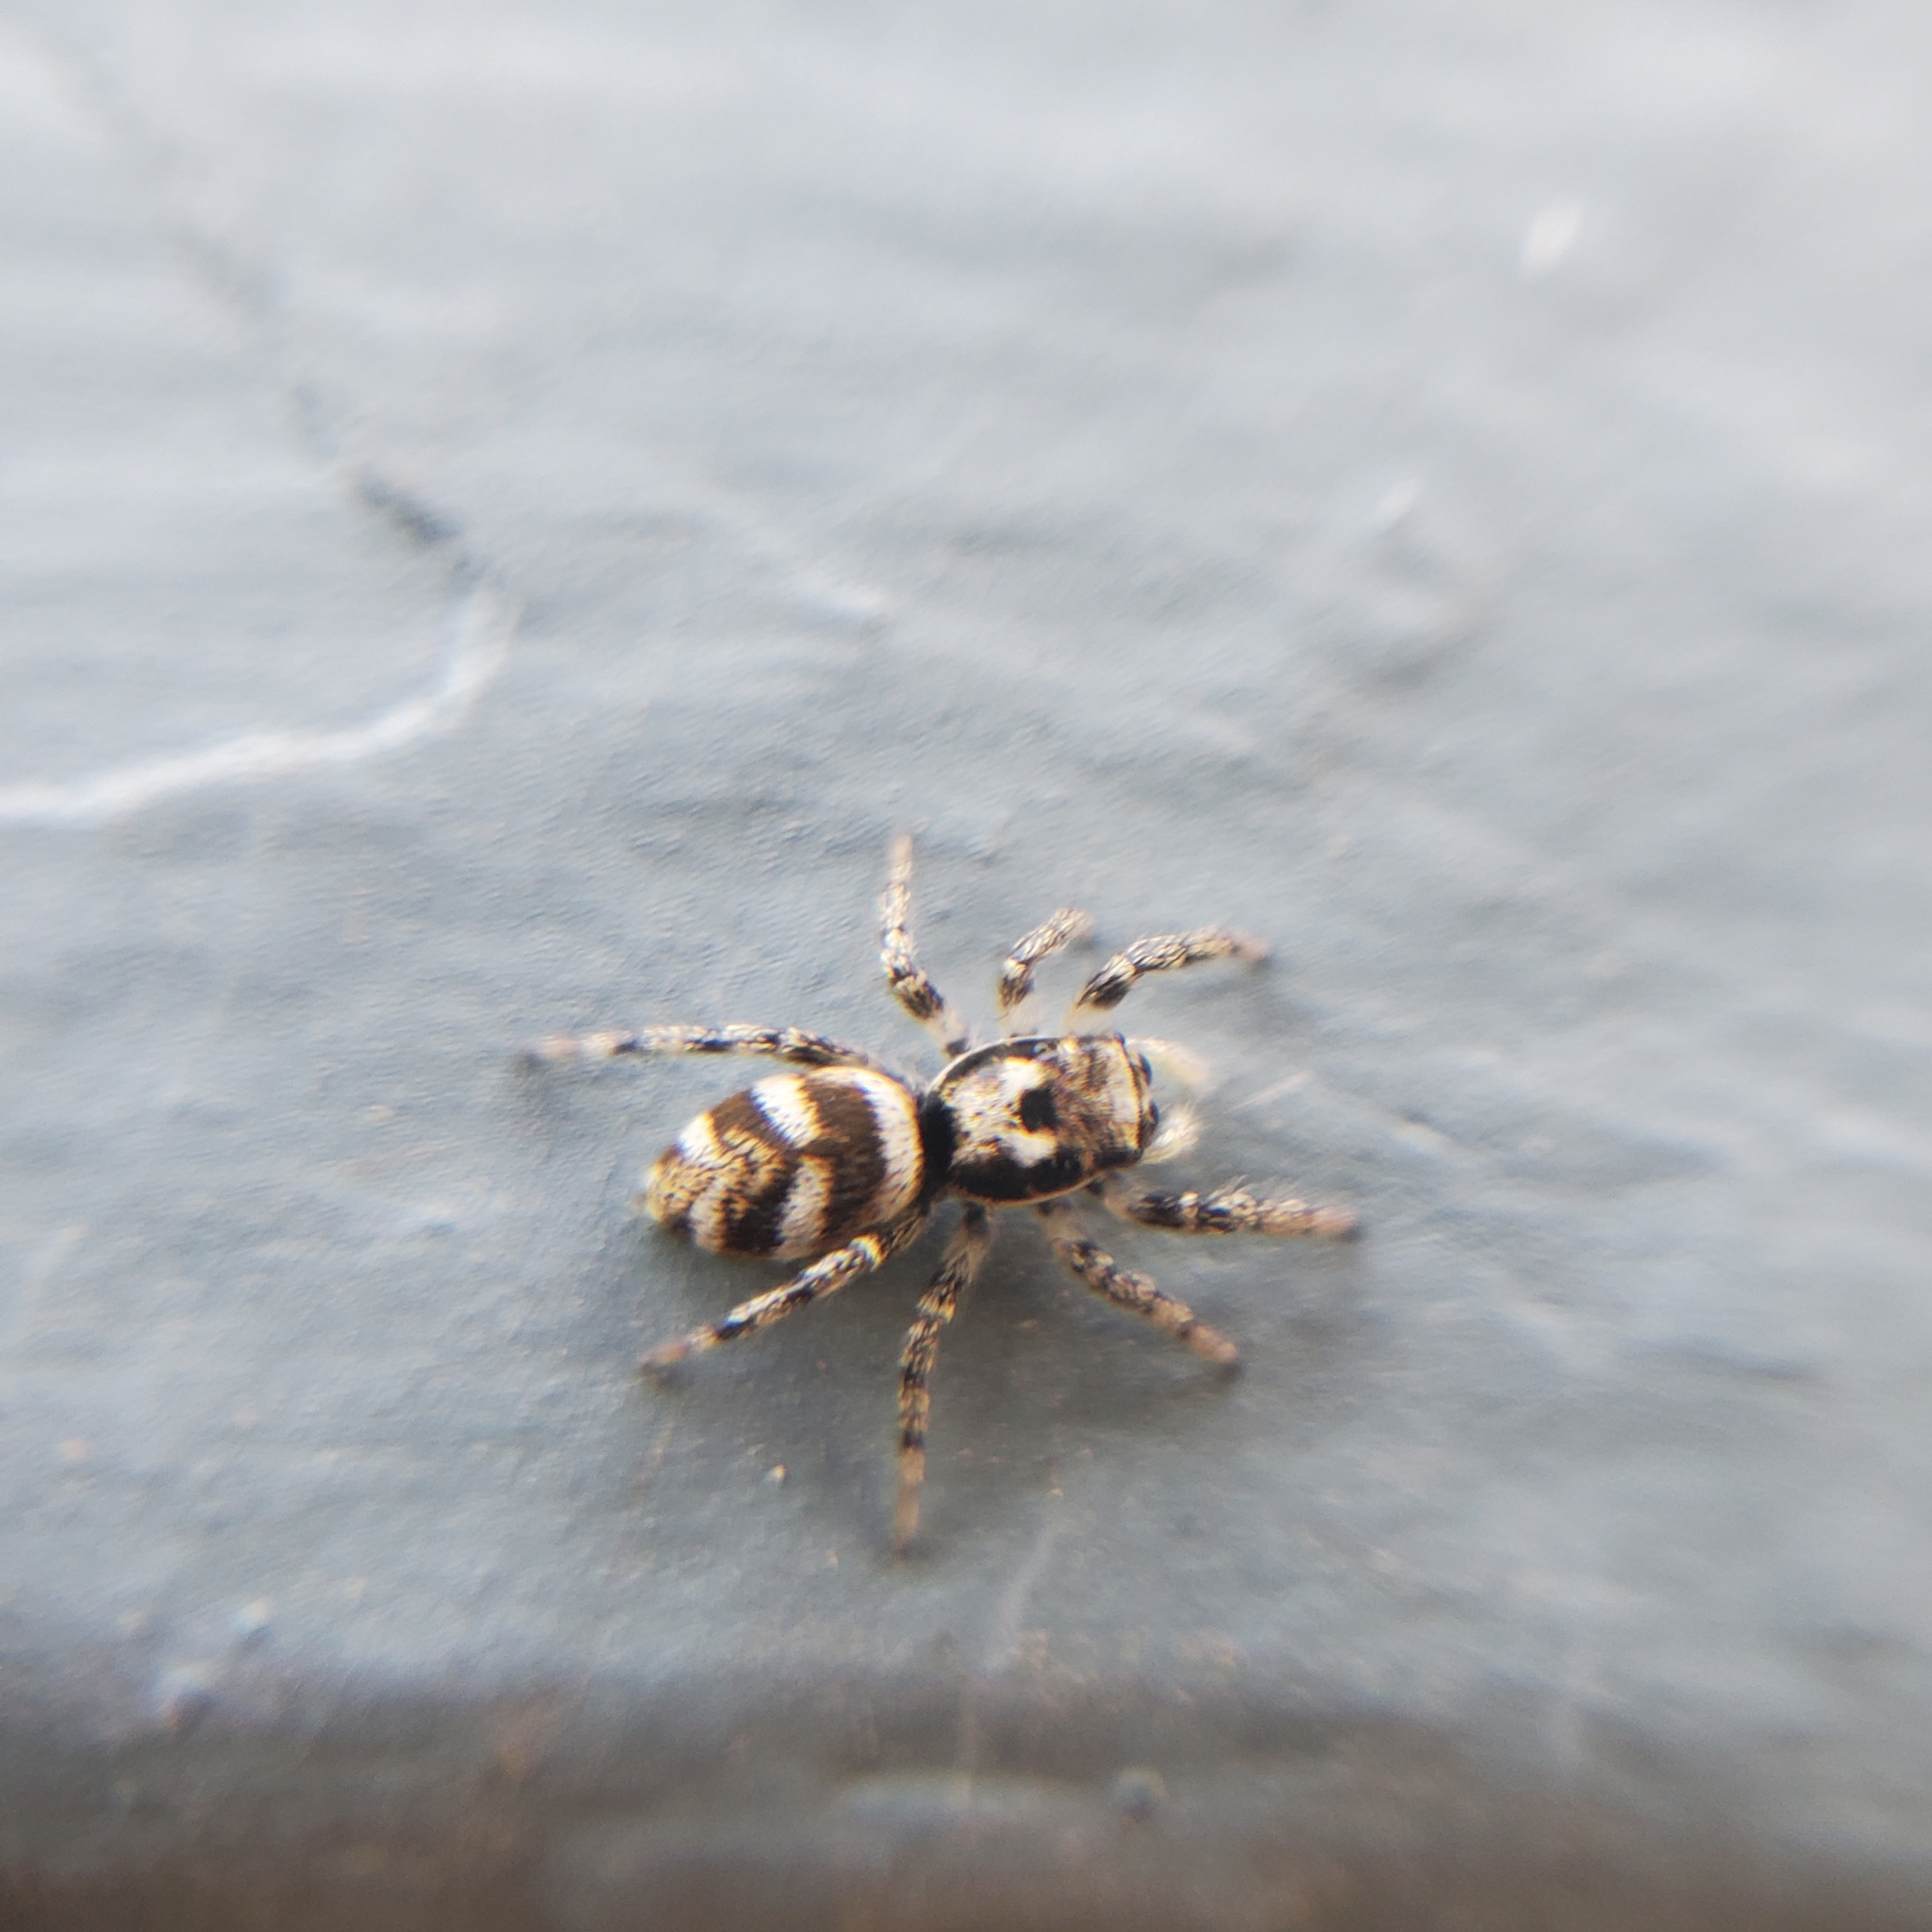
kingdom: Animalia
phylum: Arthropoda
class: Arachnida
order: Araneae
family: Salticidae
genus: Salticus
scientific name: Salticus scenicus
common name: Zebra jumper
